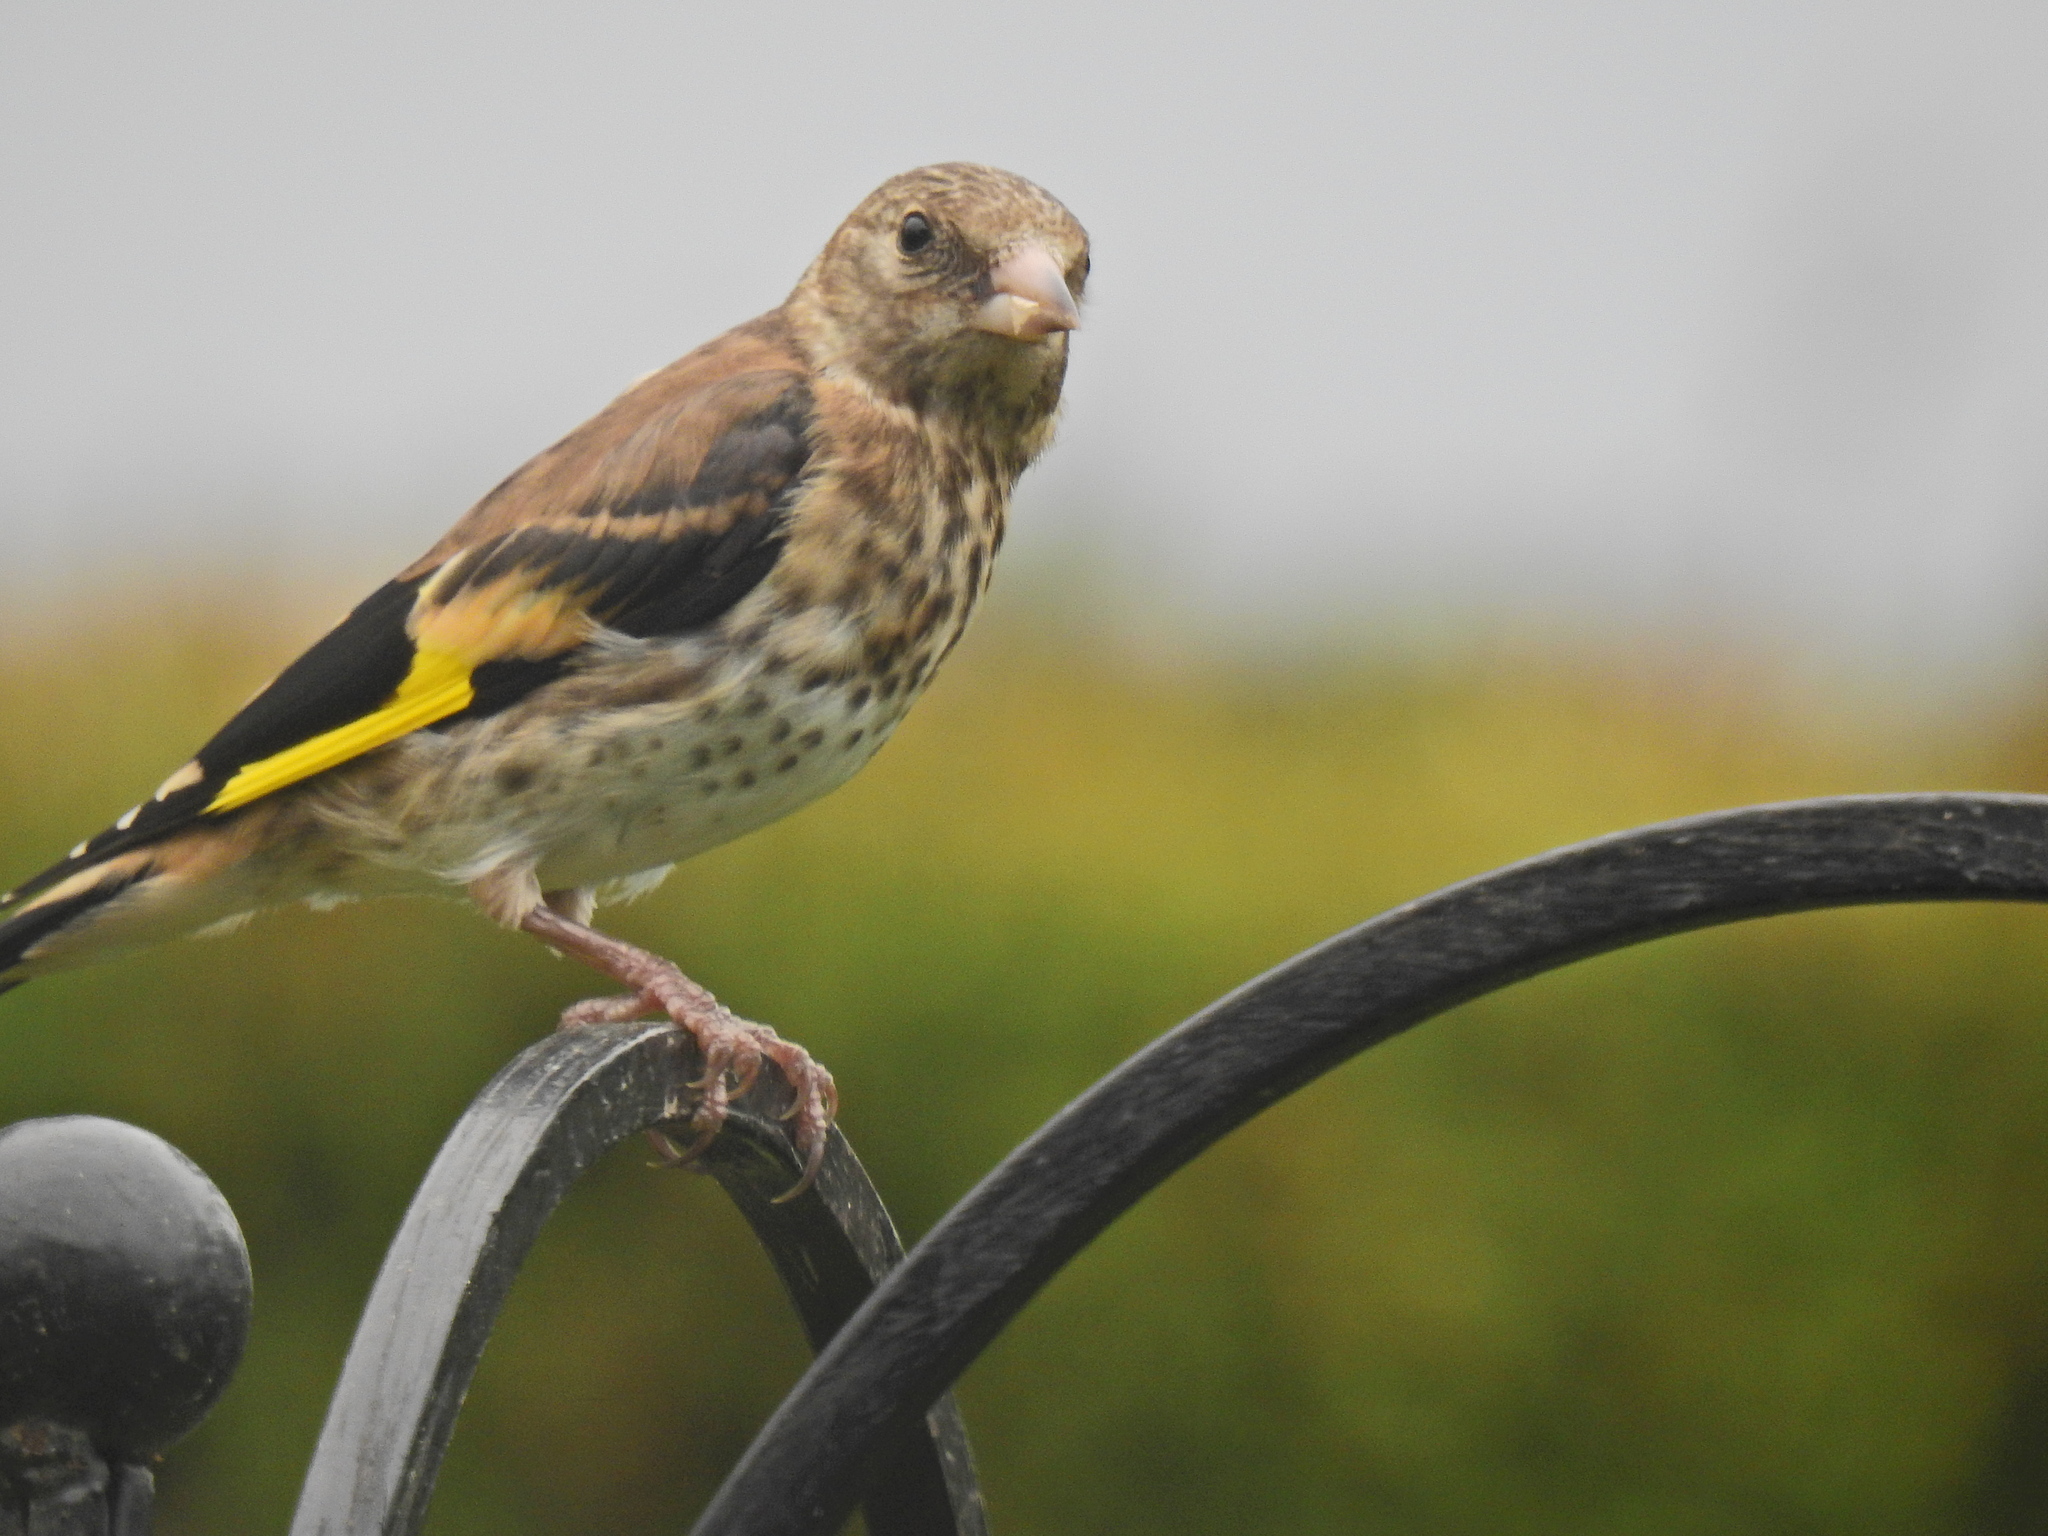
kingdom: Animalia
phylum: Chordata
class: Aves
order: Passeriformes
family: Fringillidae
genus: Carduelis
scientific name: Carduelis carduelis
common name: European goldfinch
